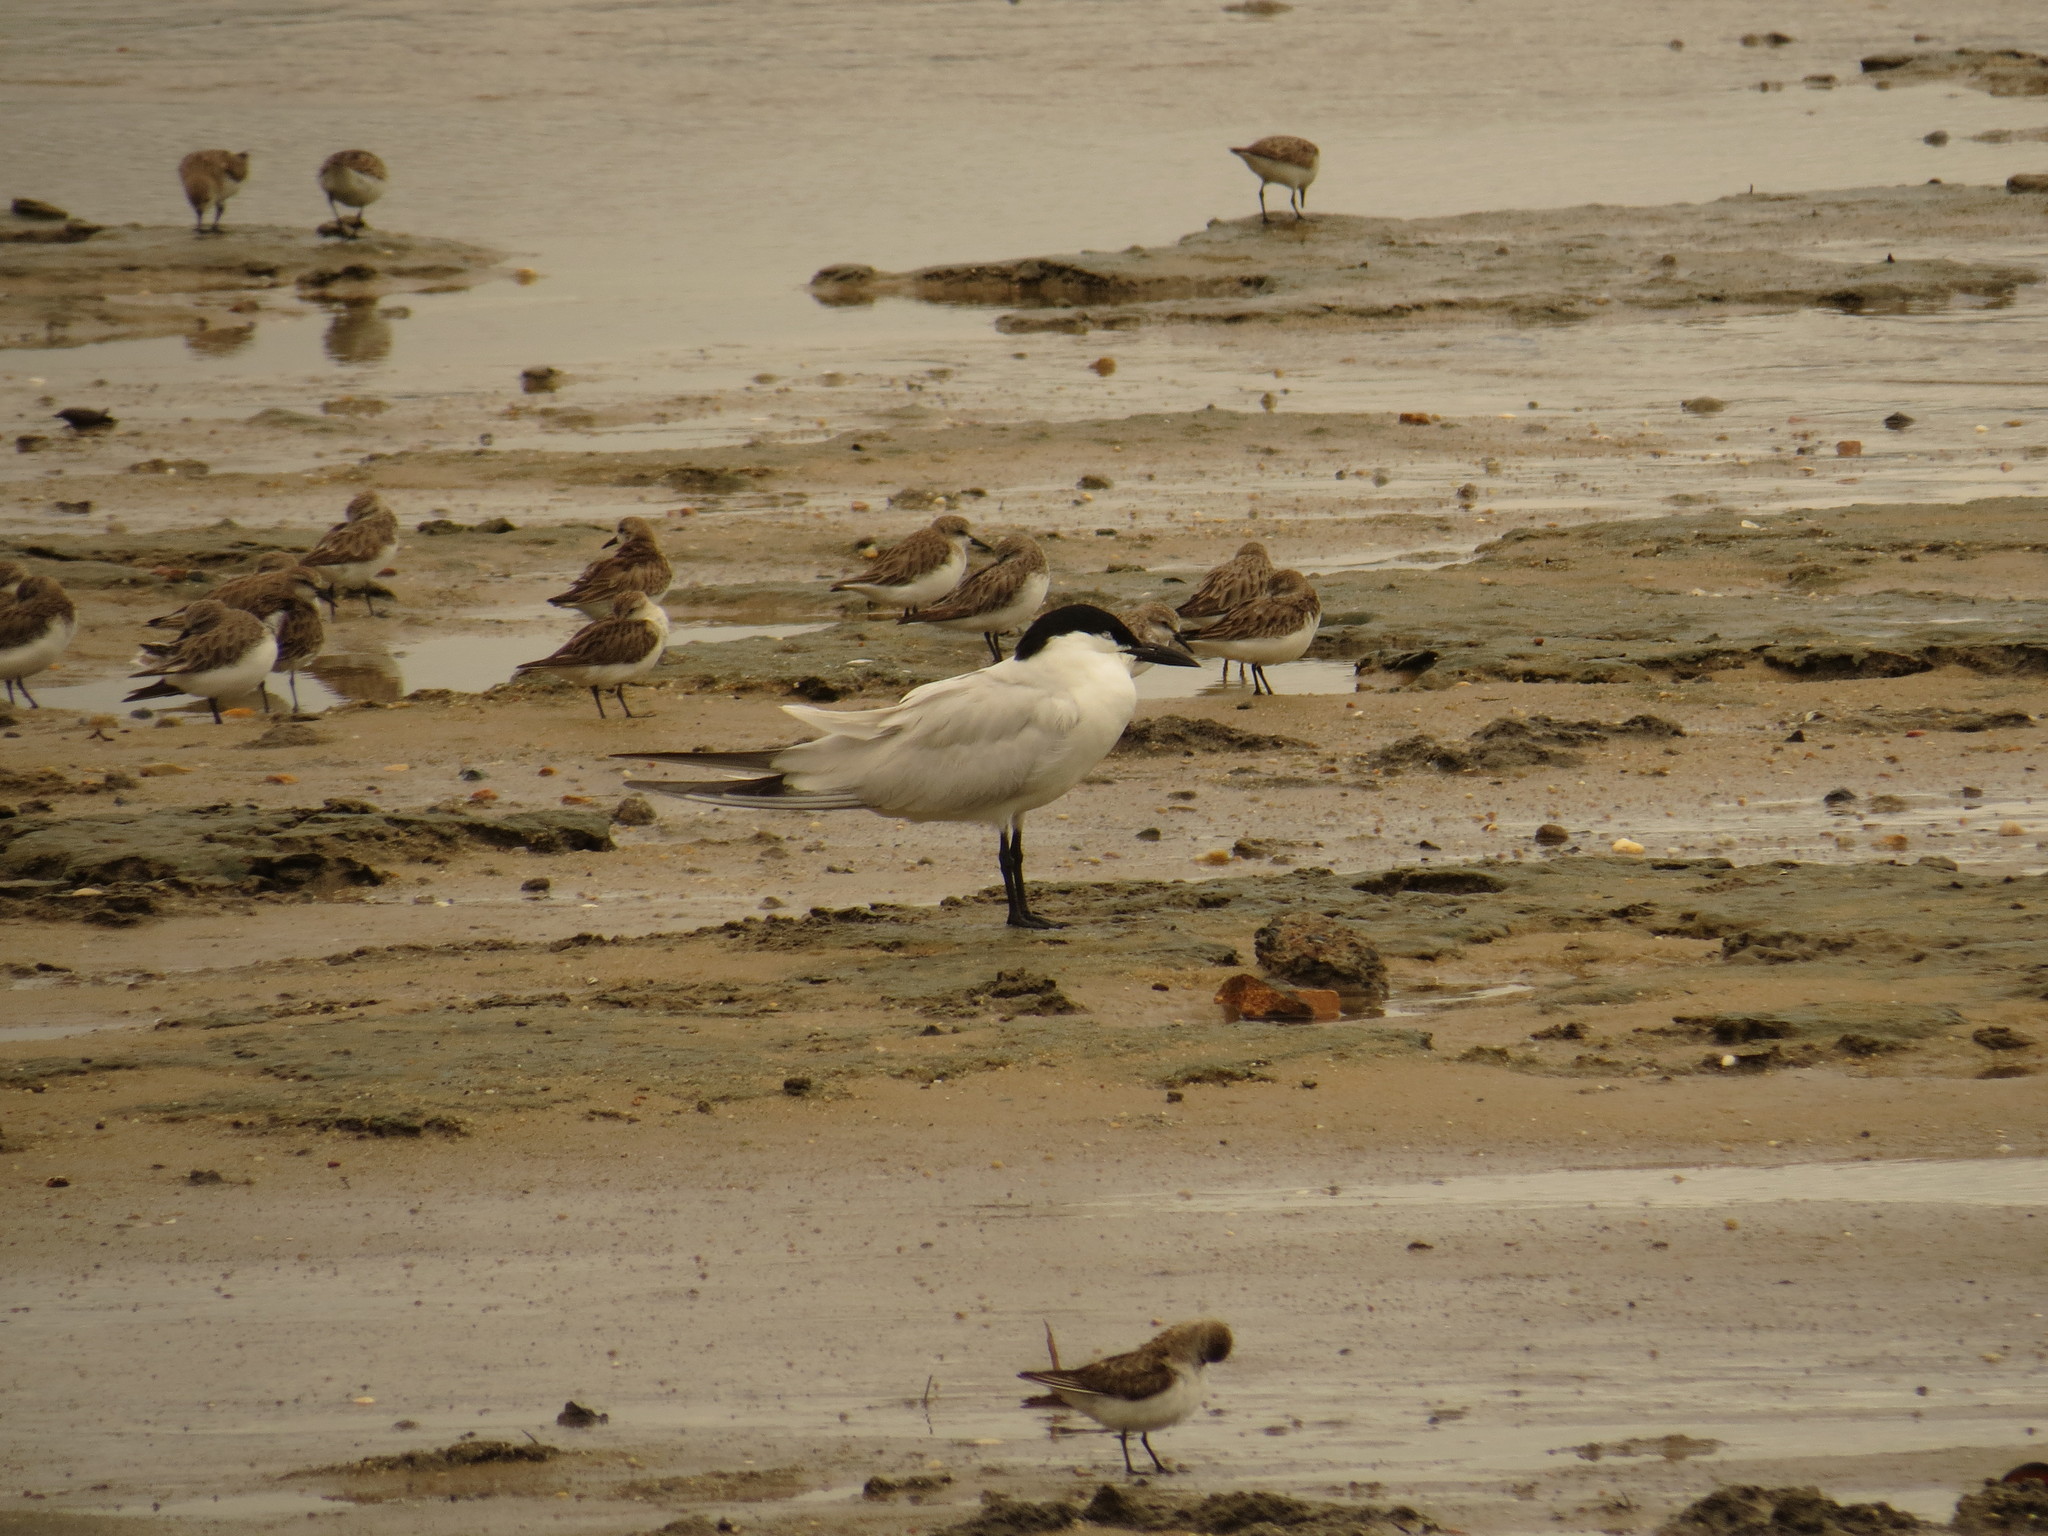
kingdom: Animalia
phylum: Chordata
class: Aves
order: Charadriiformes
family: Laridae
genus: Gelochelidon
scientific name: Gelochelidon macrotarsa
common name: Australian tern
